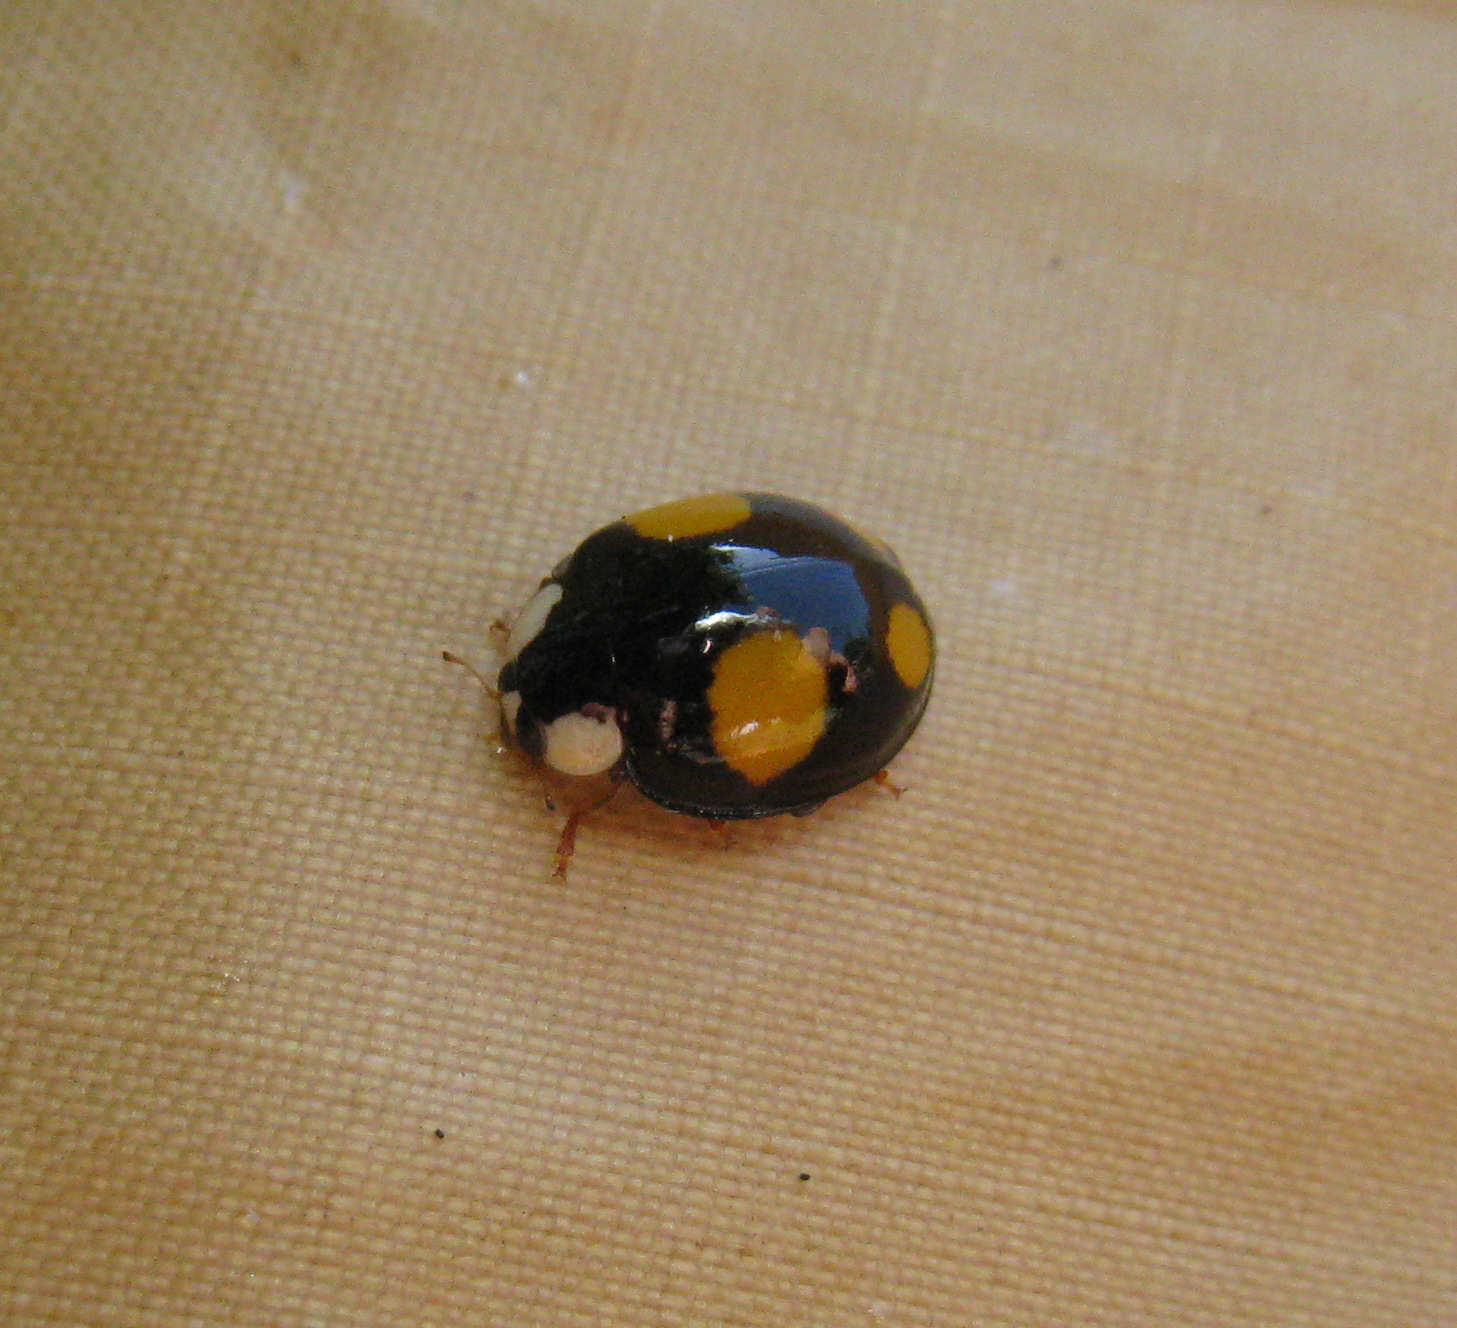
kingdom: Animalia
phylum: Arthropoda
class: Insecta
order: Coleoptera
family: Coccinellidae
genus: Harmonia
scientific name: Harmonia axyridis
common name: Harlequin ladybird
